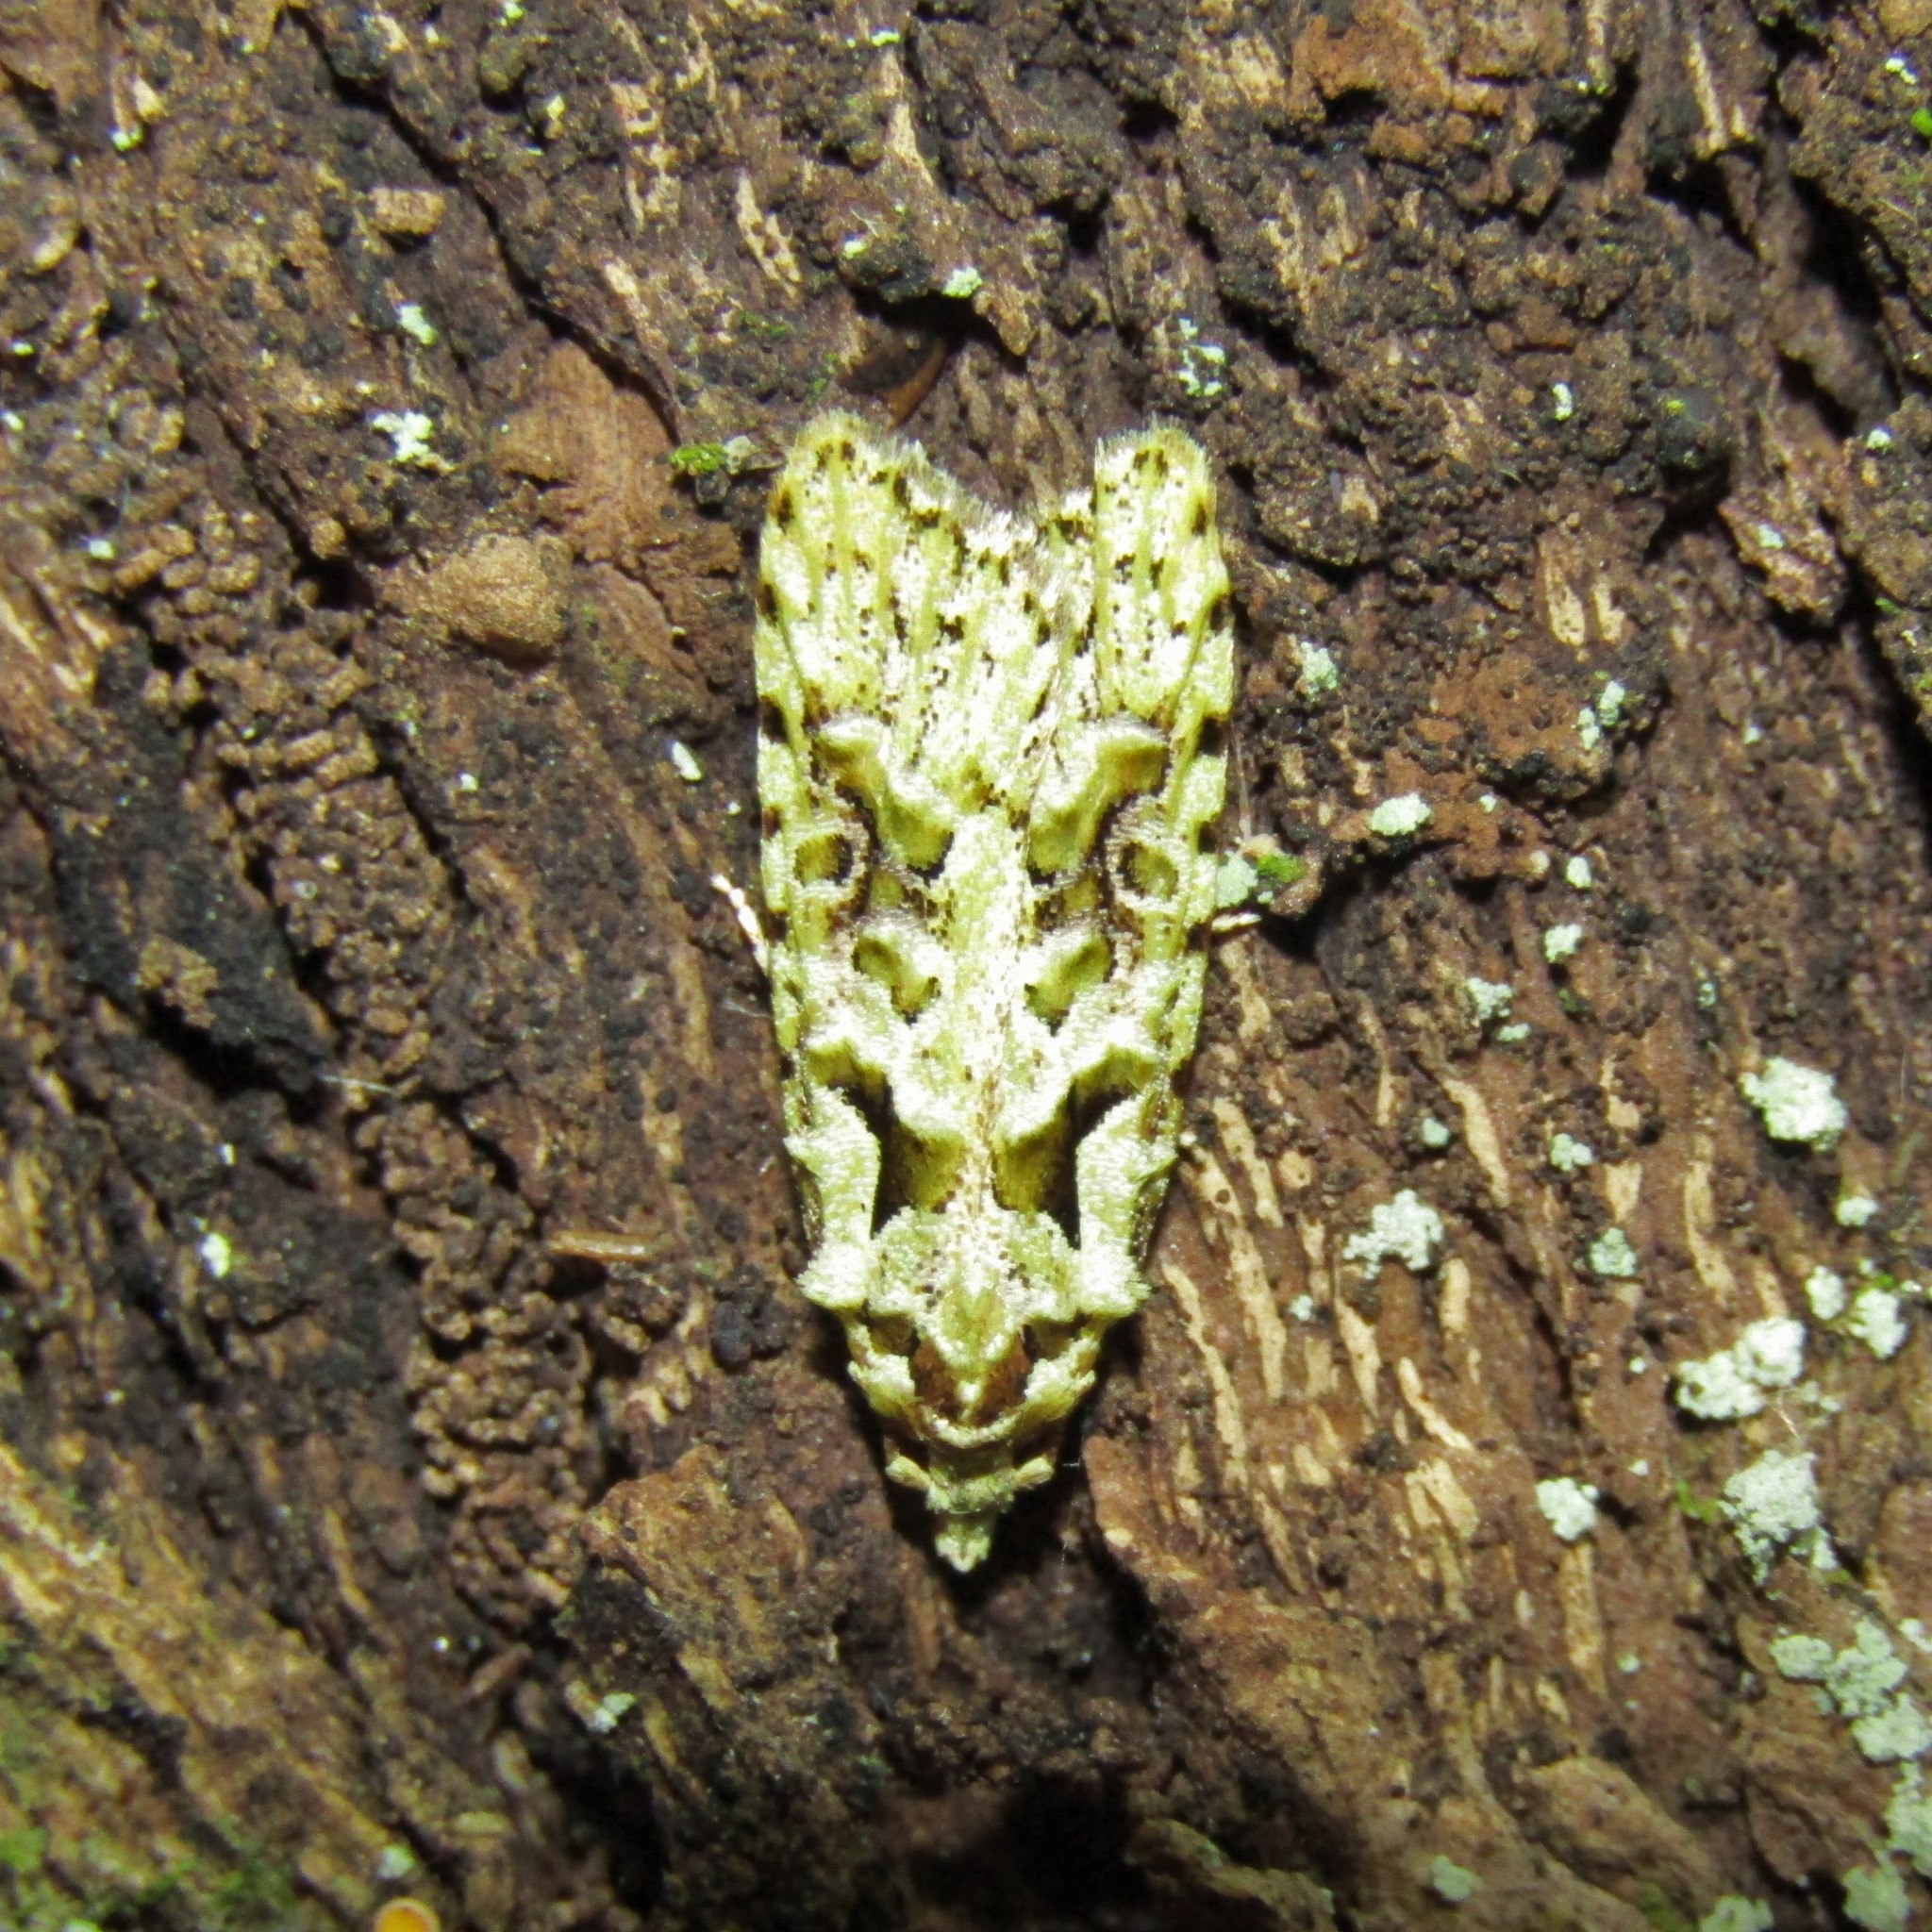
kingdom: Animalia
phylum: Arthropoda
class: Insecta
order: Lepidoptera
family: Carposinidae
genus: Carposina
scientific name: Carposina Heterocrossa eriphylla
